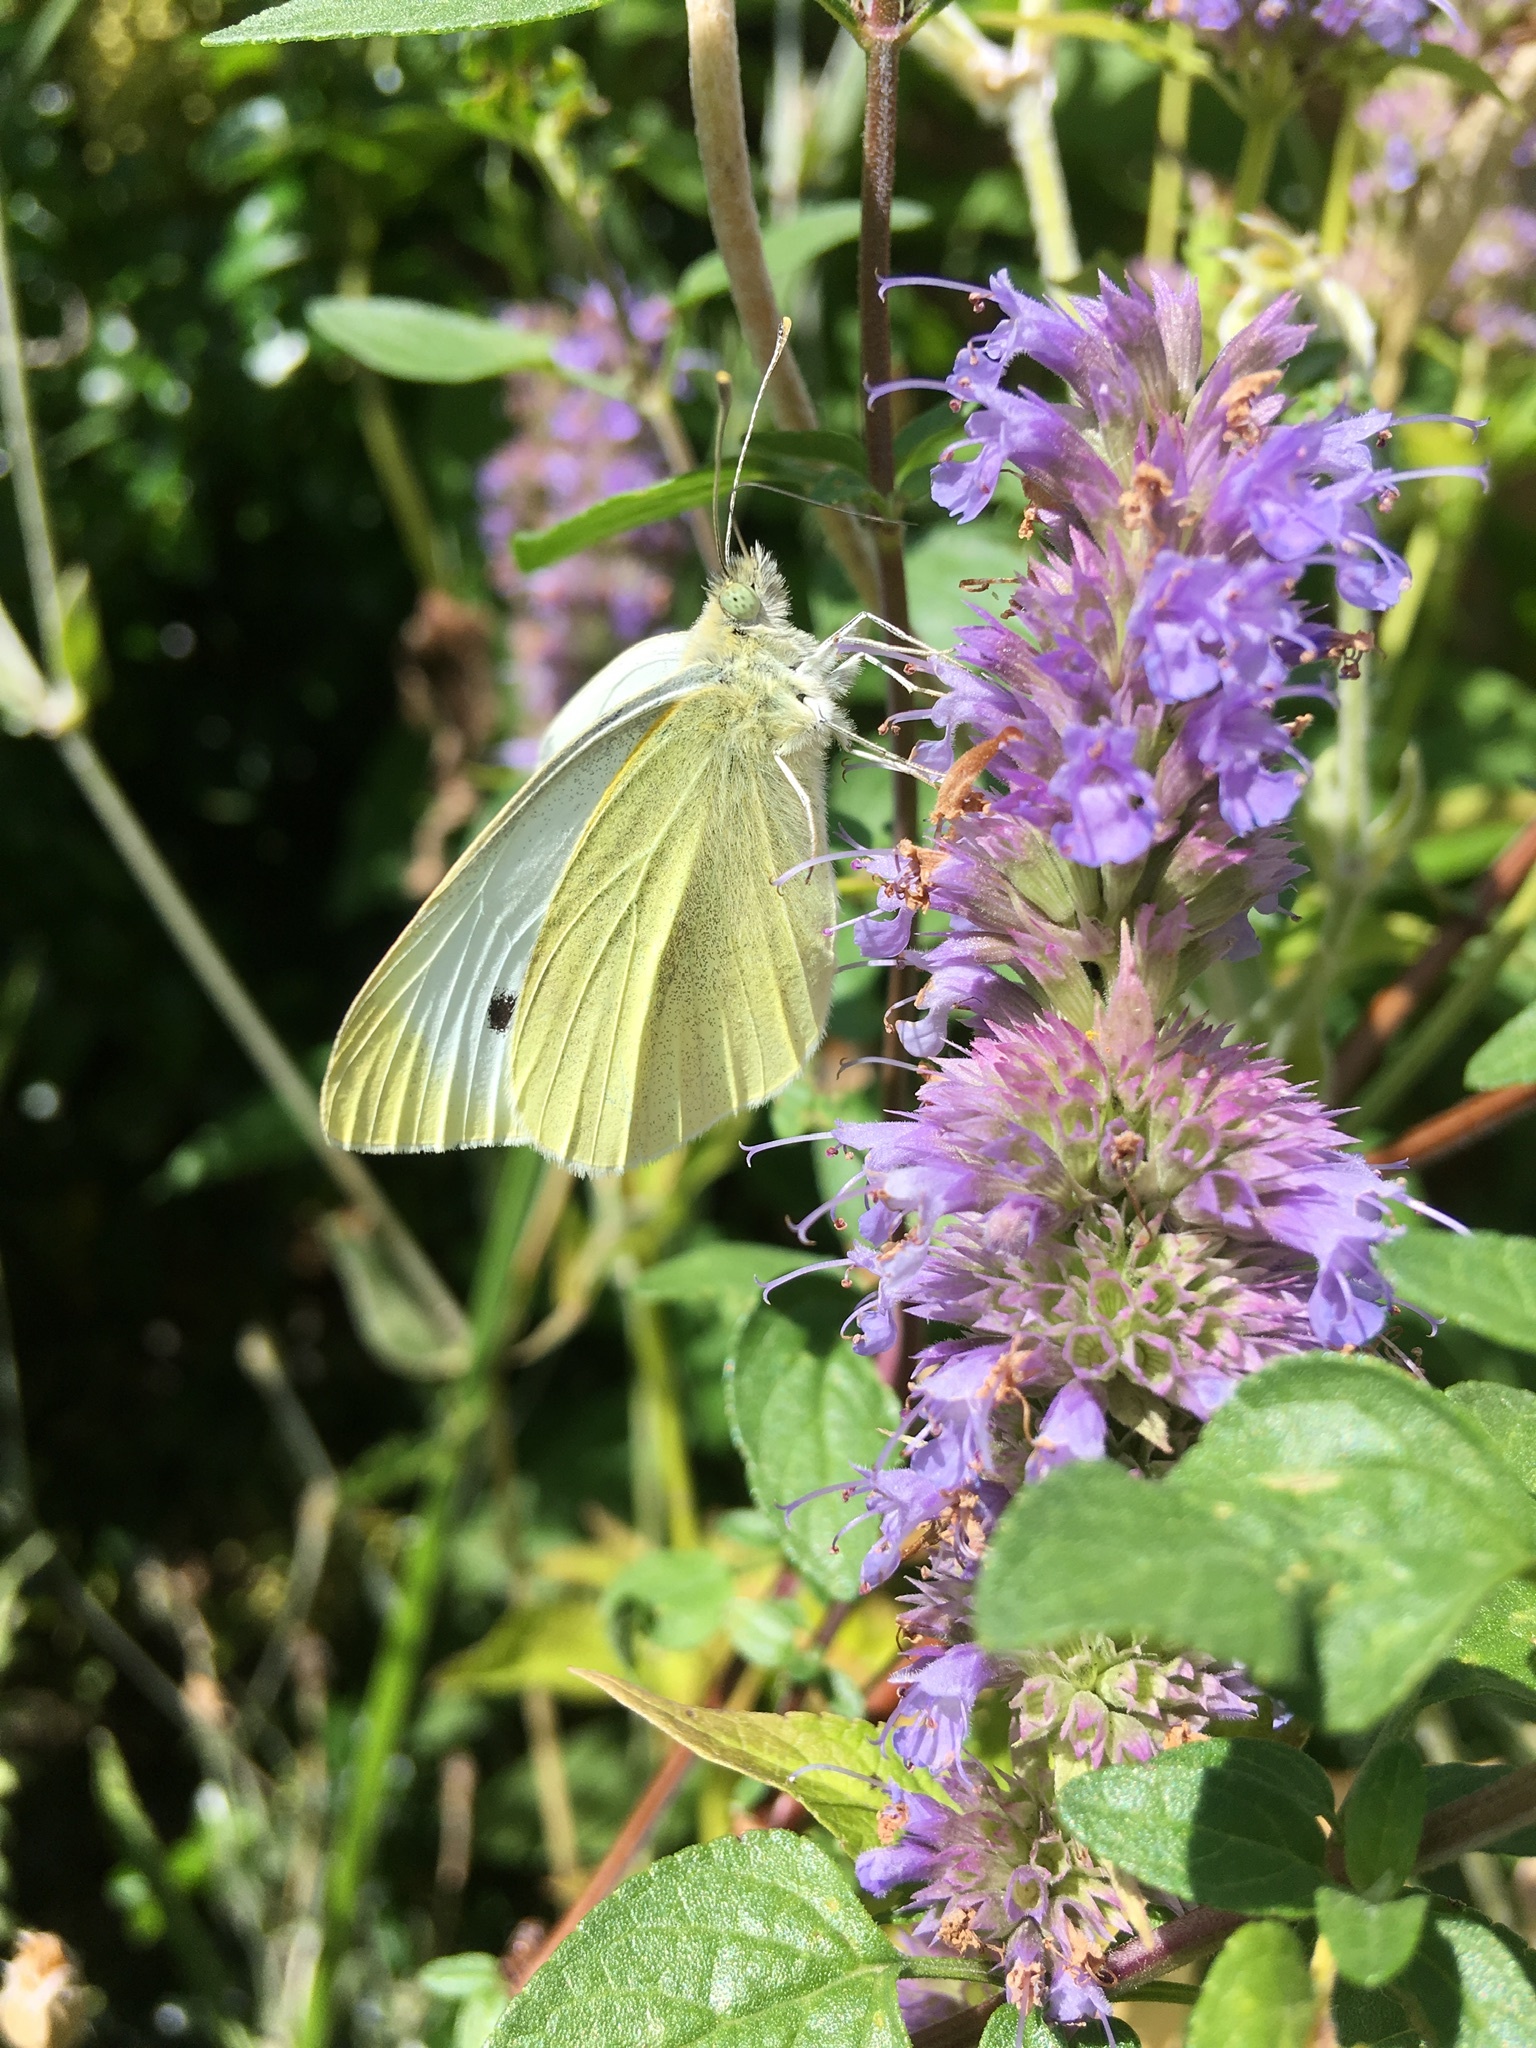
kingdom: Animalia
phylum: Arthropoda
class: Insecta
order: Lepidoptera
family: Pieridae
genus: Pieris
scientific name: Pieris brassicae
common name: Large white
